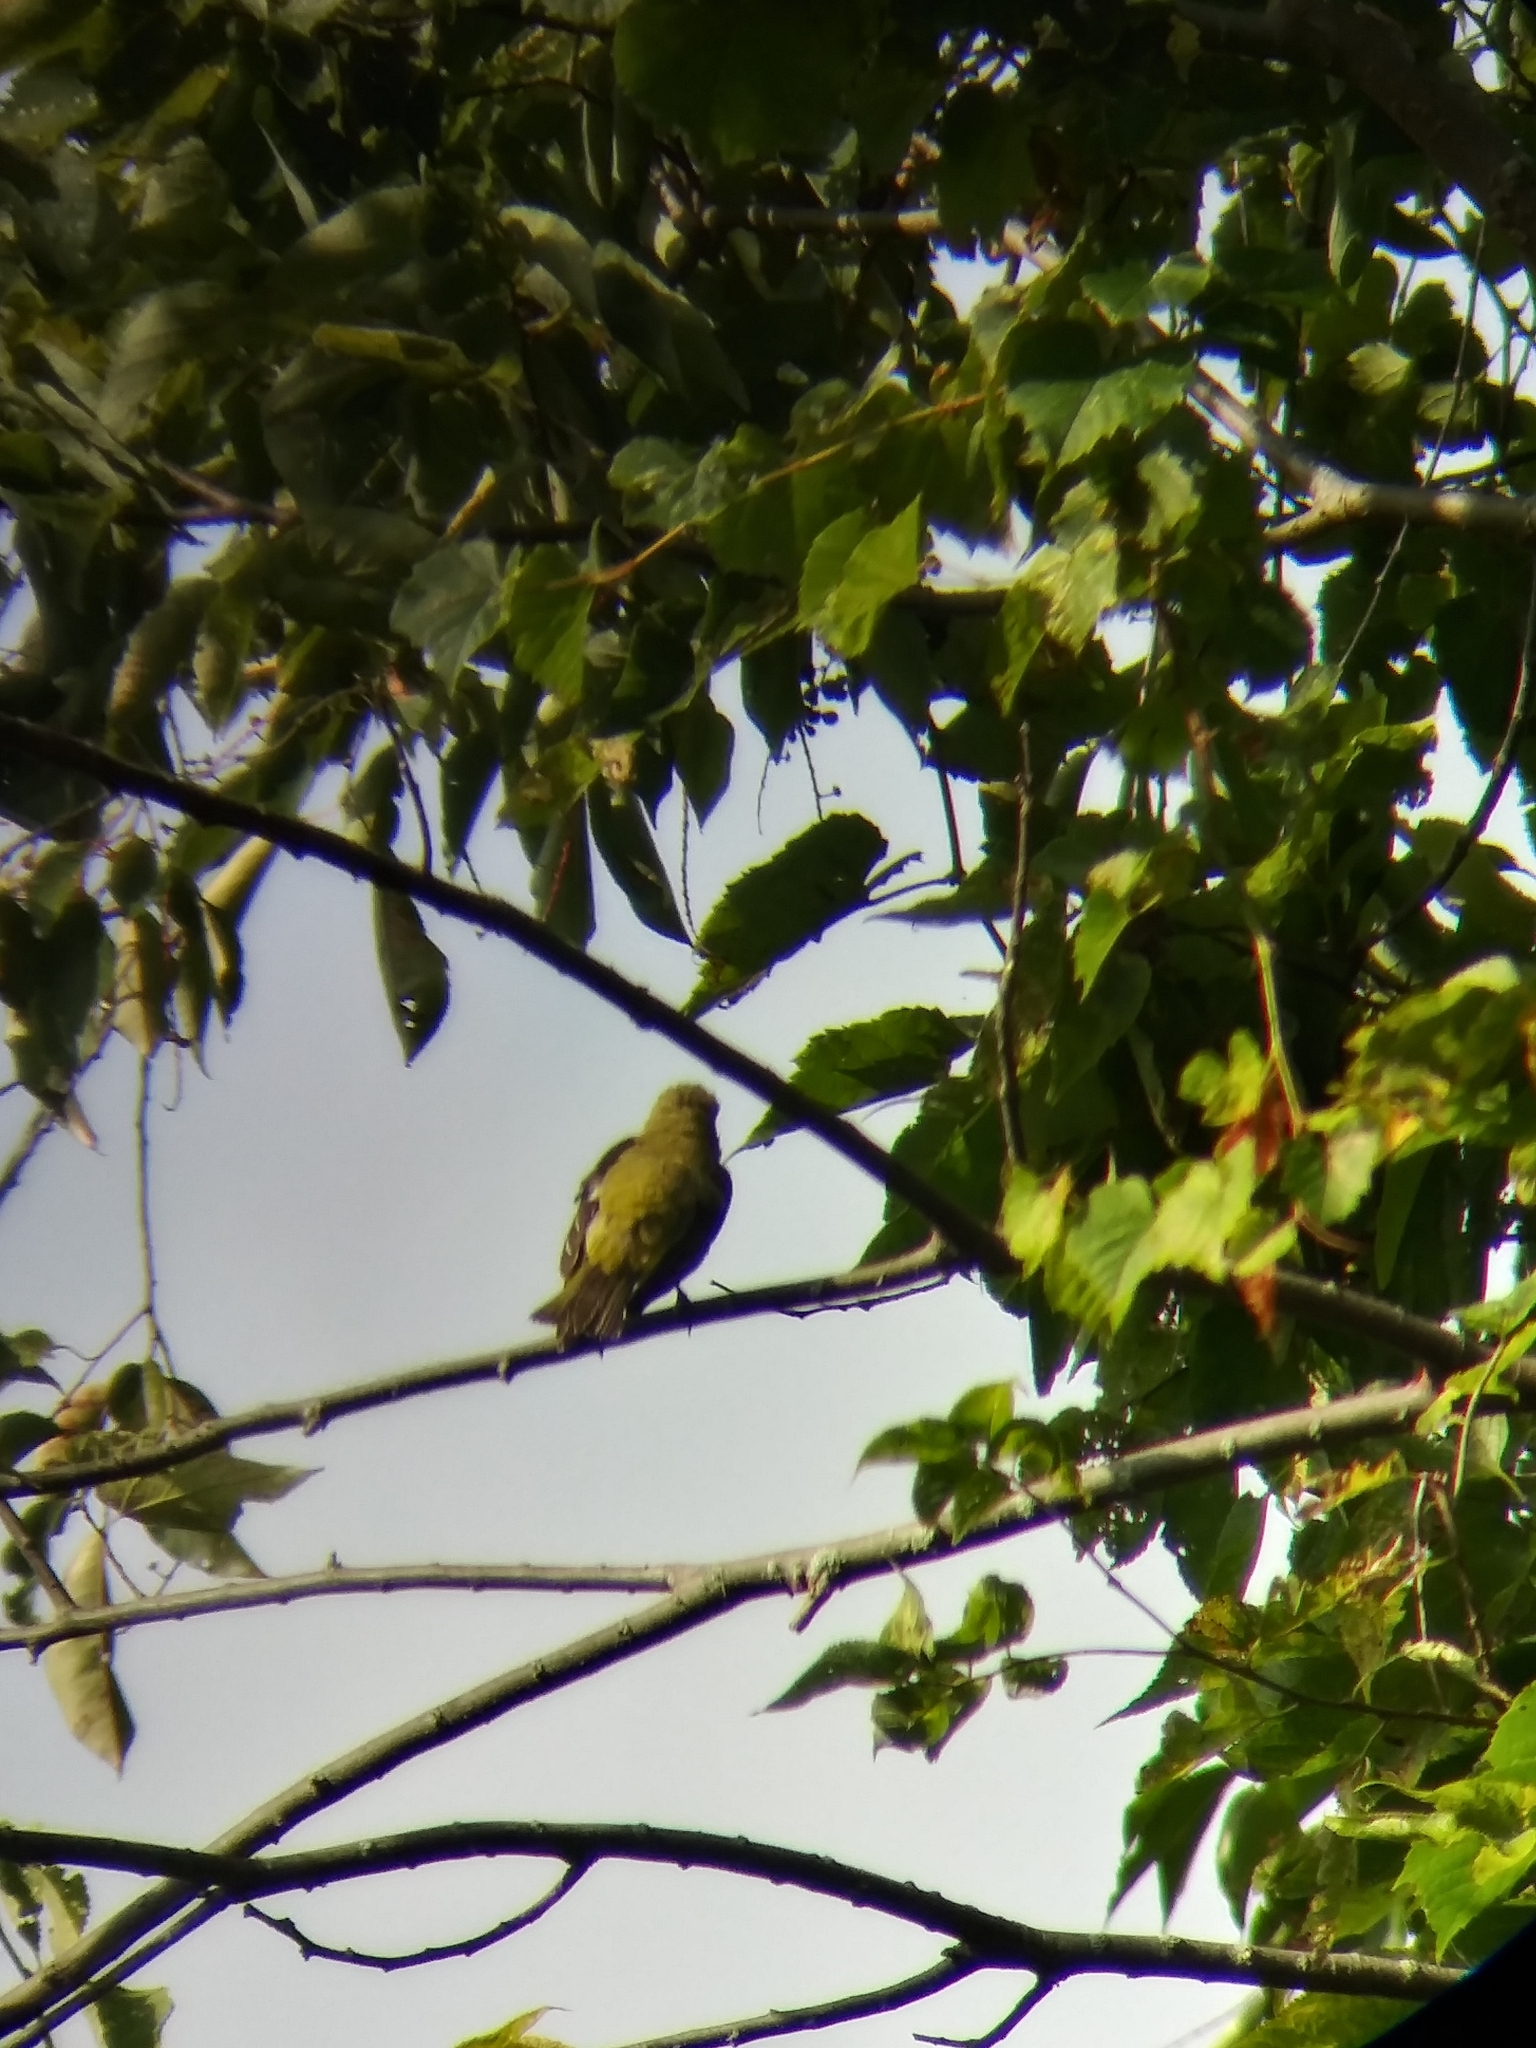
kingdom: Animalia
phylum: Chordata
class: Aves
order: Passeriformes
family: Cardinalidae
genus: Piranga
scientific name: Piranga olivacea
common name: Scarlet tanager
